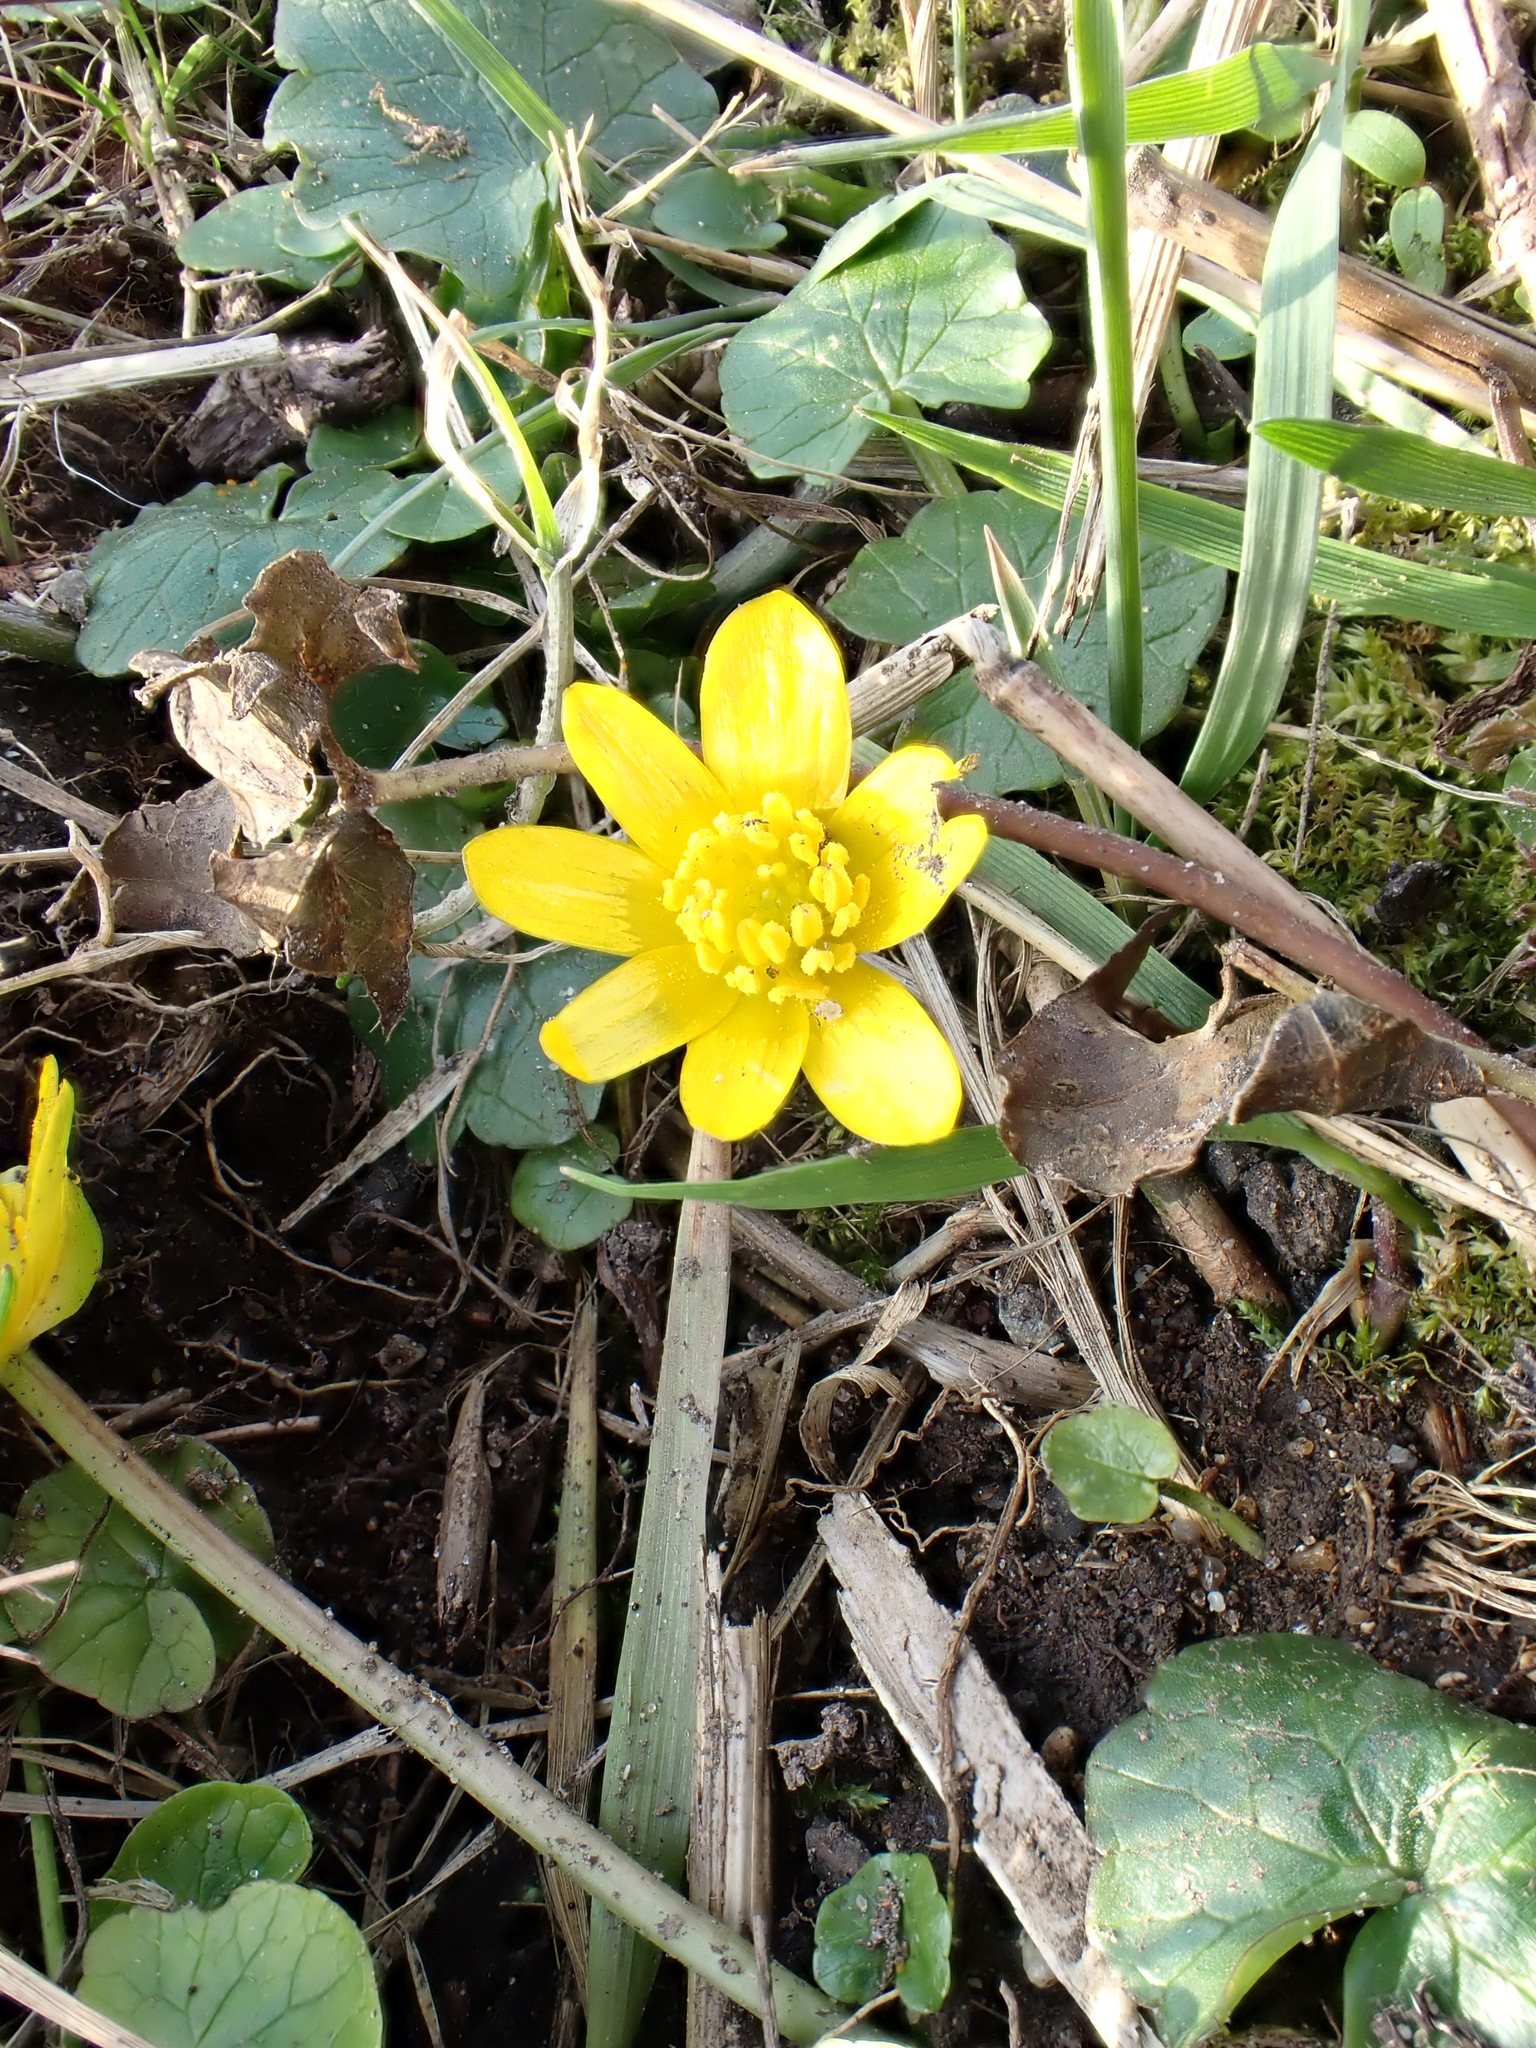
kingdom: Plantae
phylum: Tracheophyta
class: Magnoliopsida
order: Ranunculales
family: Ranunculaceae
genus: Ficaria
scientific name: Ficaria verna
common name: Lesser celandine
